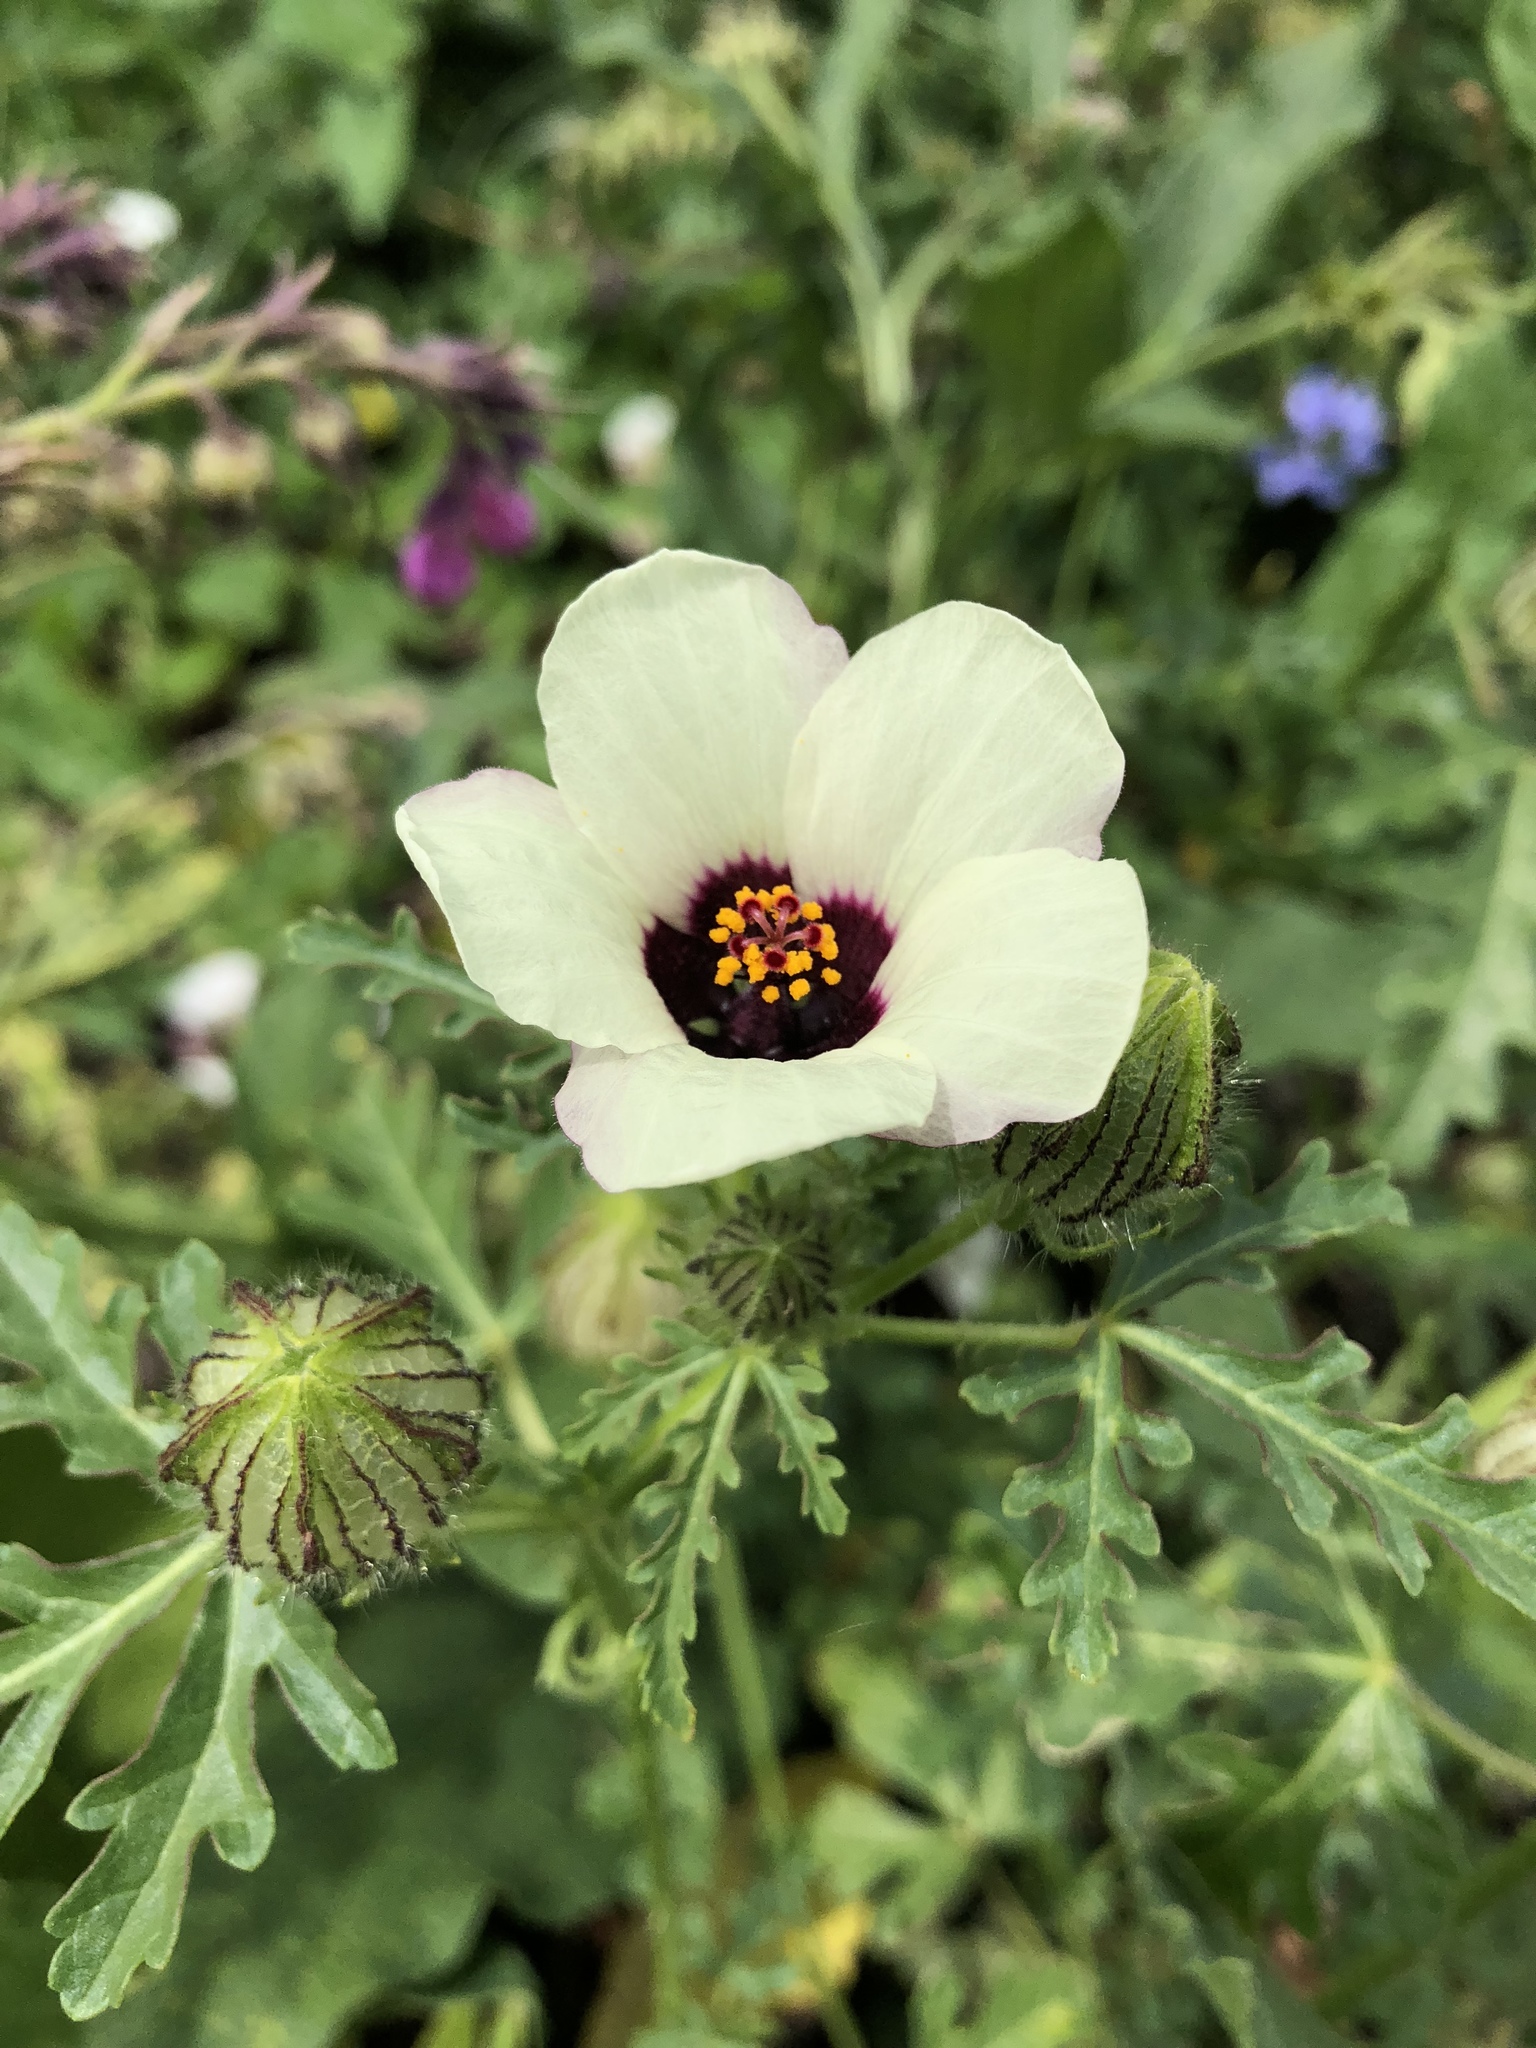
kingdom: Plantae
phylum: Tracheophyta
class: Magnoliopsida
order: Malvales
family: Malvaceae
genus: Hibiscus
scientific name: Hibiscus trionum
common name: Bladder ketmia
